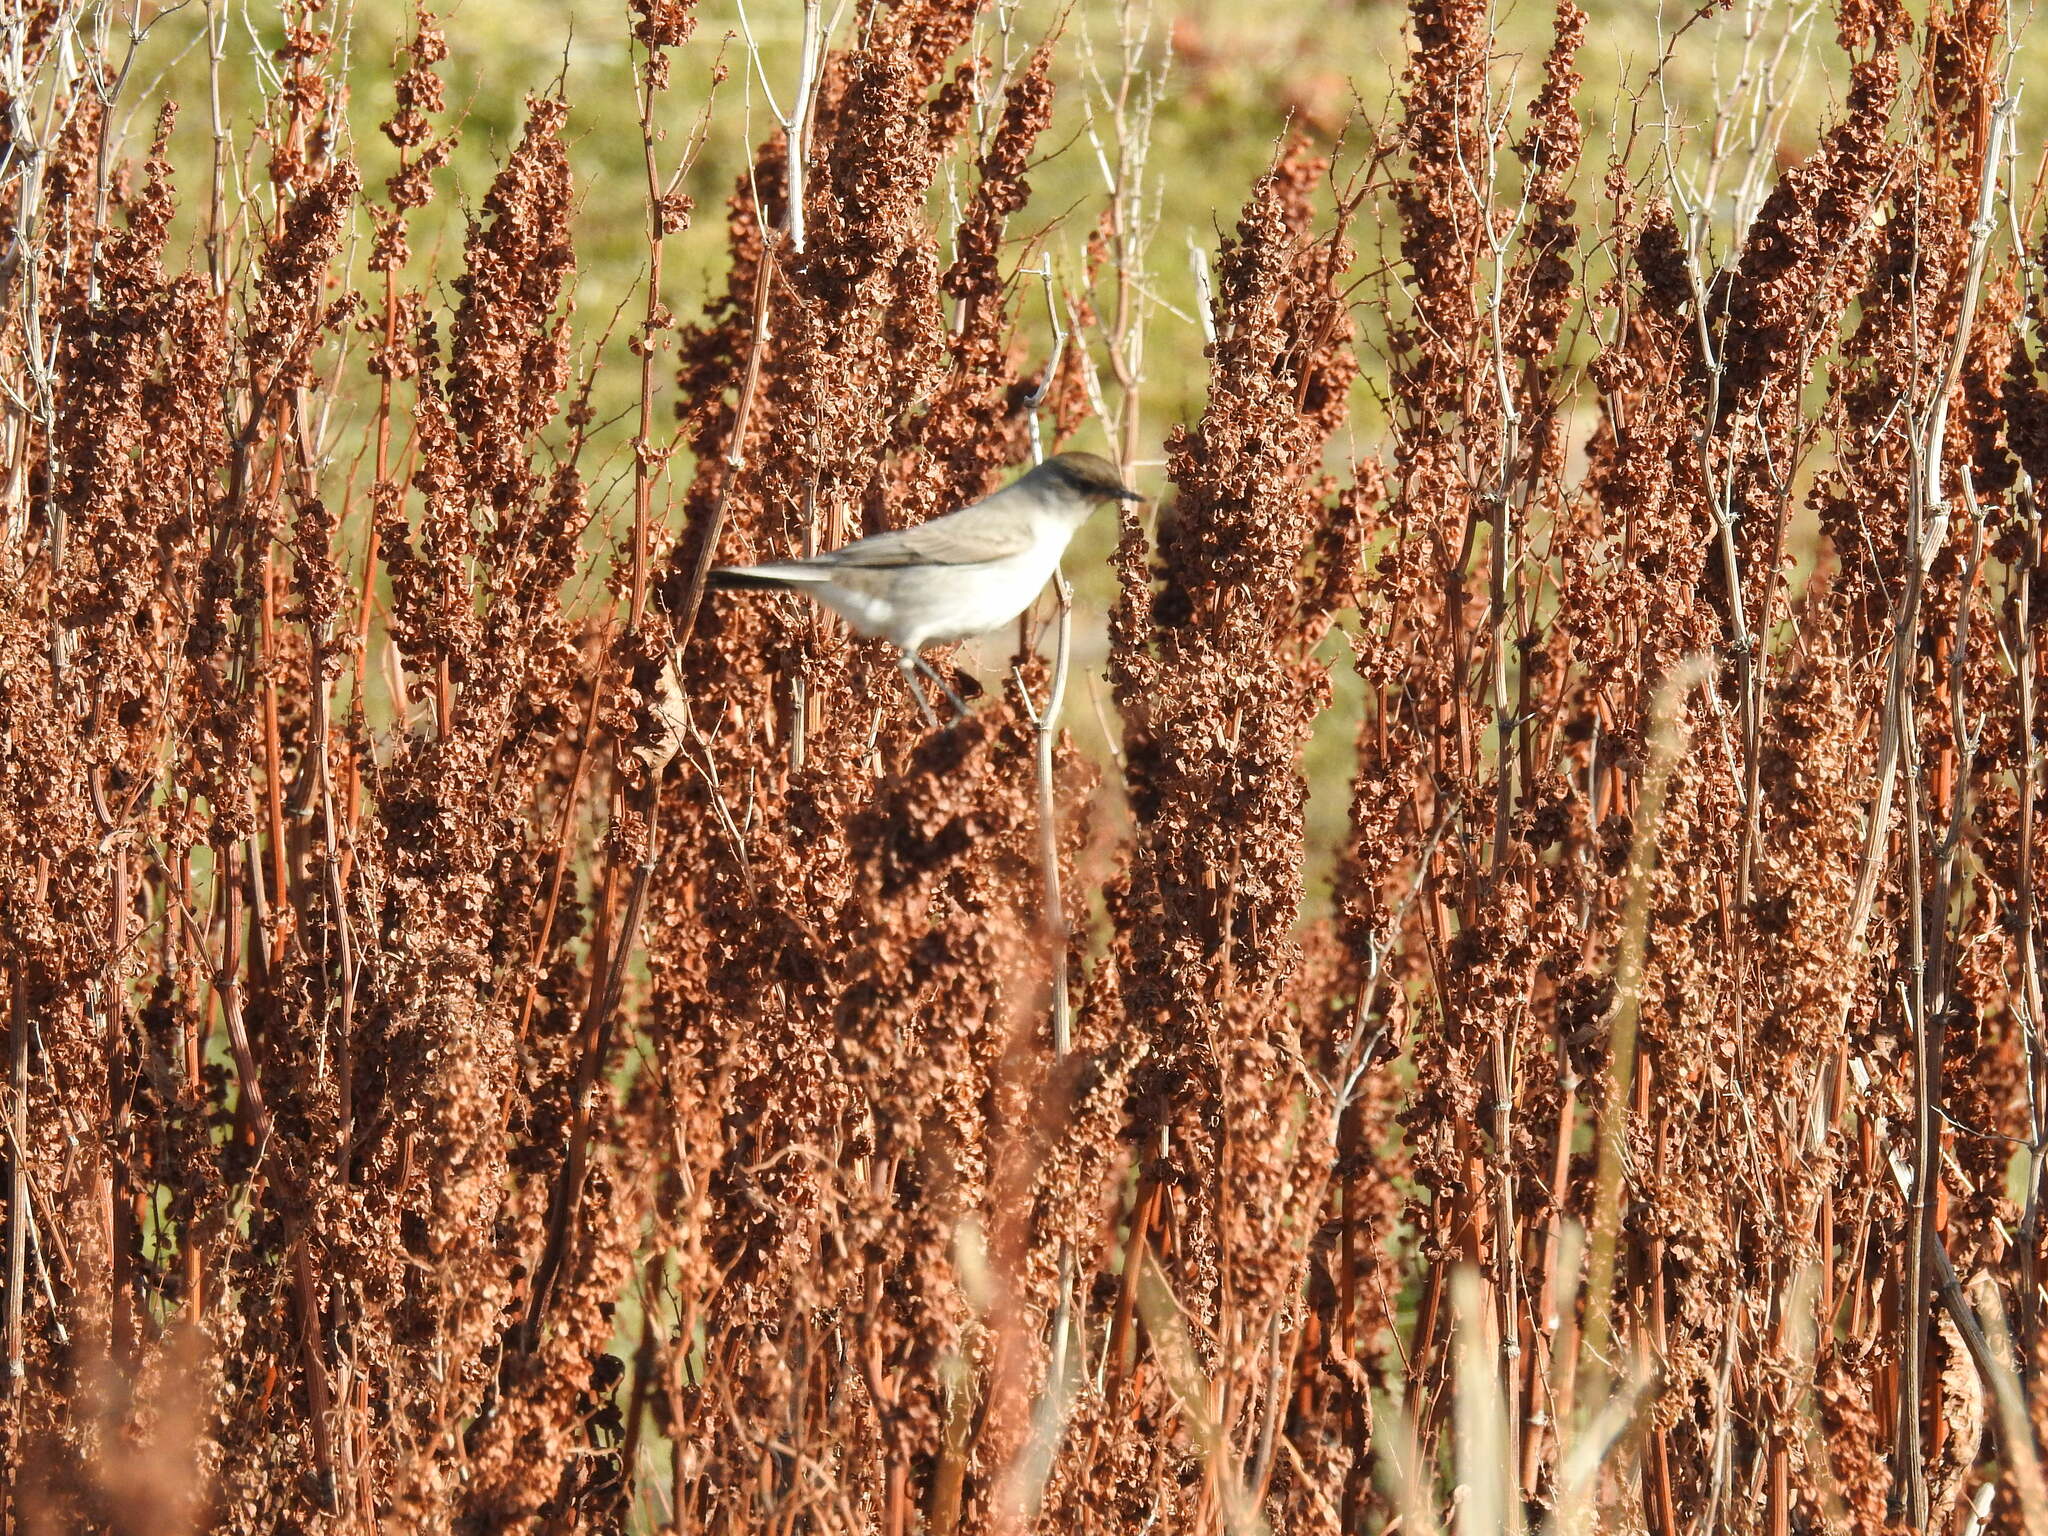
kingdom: Animalia
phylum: Chordata
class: Aves
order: Passeriformes
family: Tyrannidae
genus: Muscisaxicola
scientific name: Muscisaxicola maclovianus
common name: Dark-faced ground tyrant
